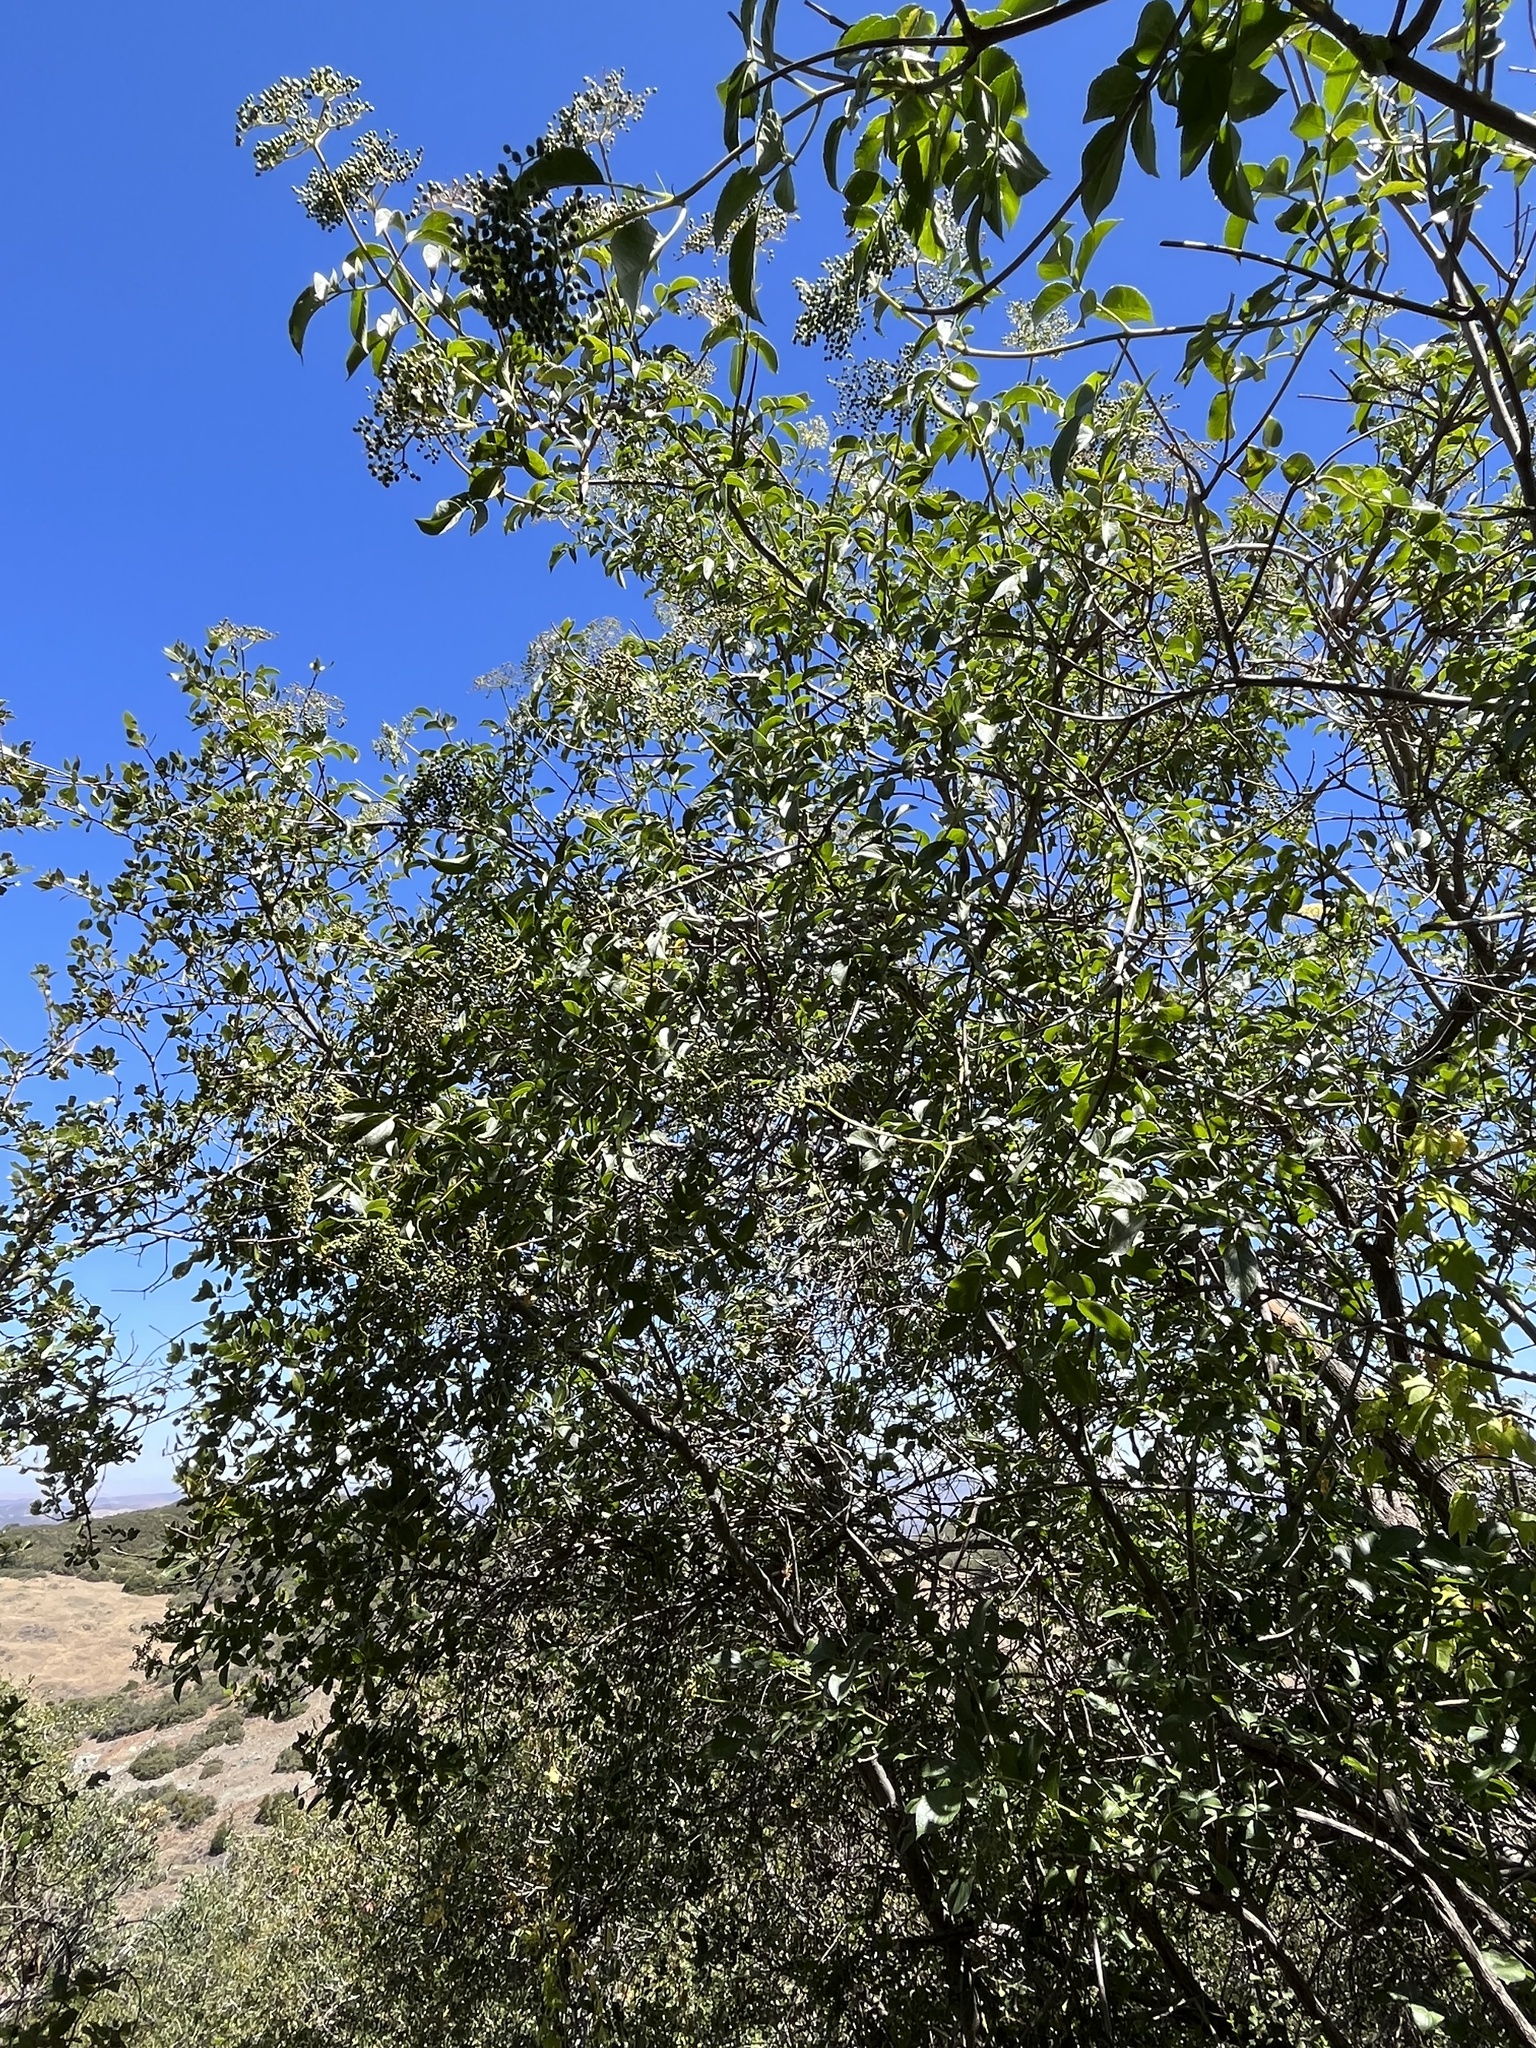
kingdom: Plantae
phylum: Tracheophyta
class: Magnoliopsida
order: Dipsacales
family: Viburnaceae
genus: Sambucus
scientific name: Sambucus cerulea
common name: Blue elder
